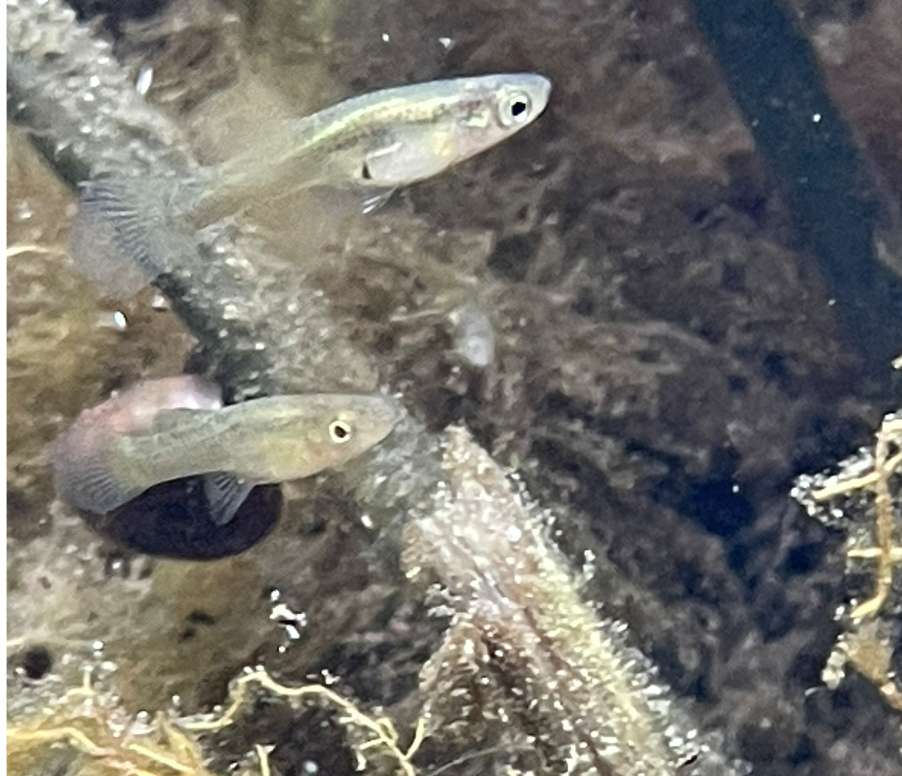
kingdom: Animalia
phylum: Chordata
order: Cyprinodontiformes
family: Poeciliidae
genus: Gambusia
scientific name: Gambusia holbrooki
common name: Eastern mosquitofish
